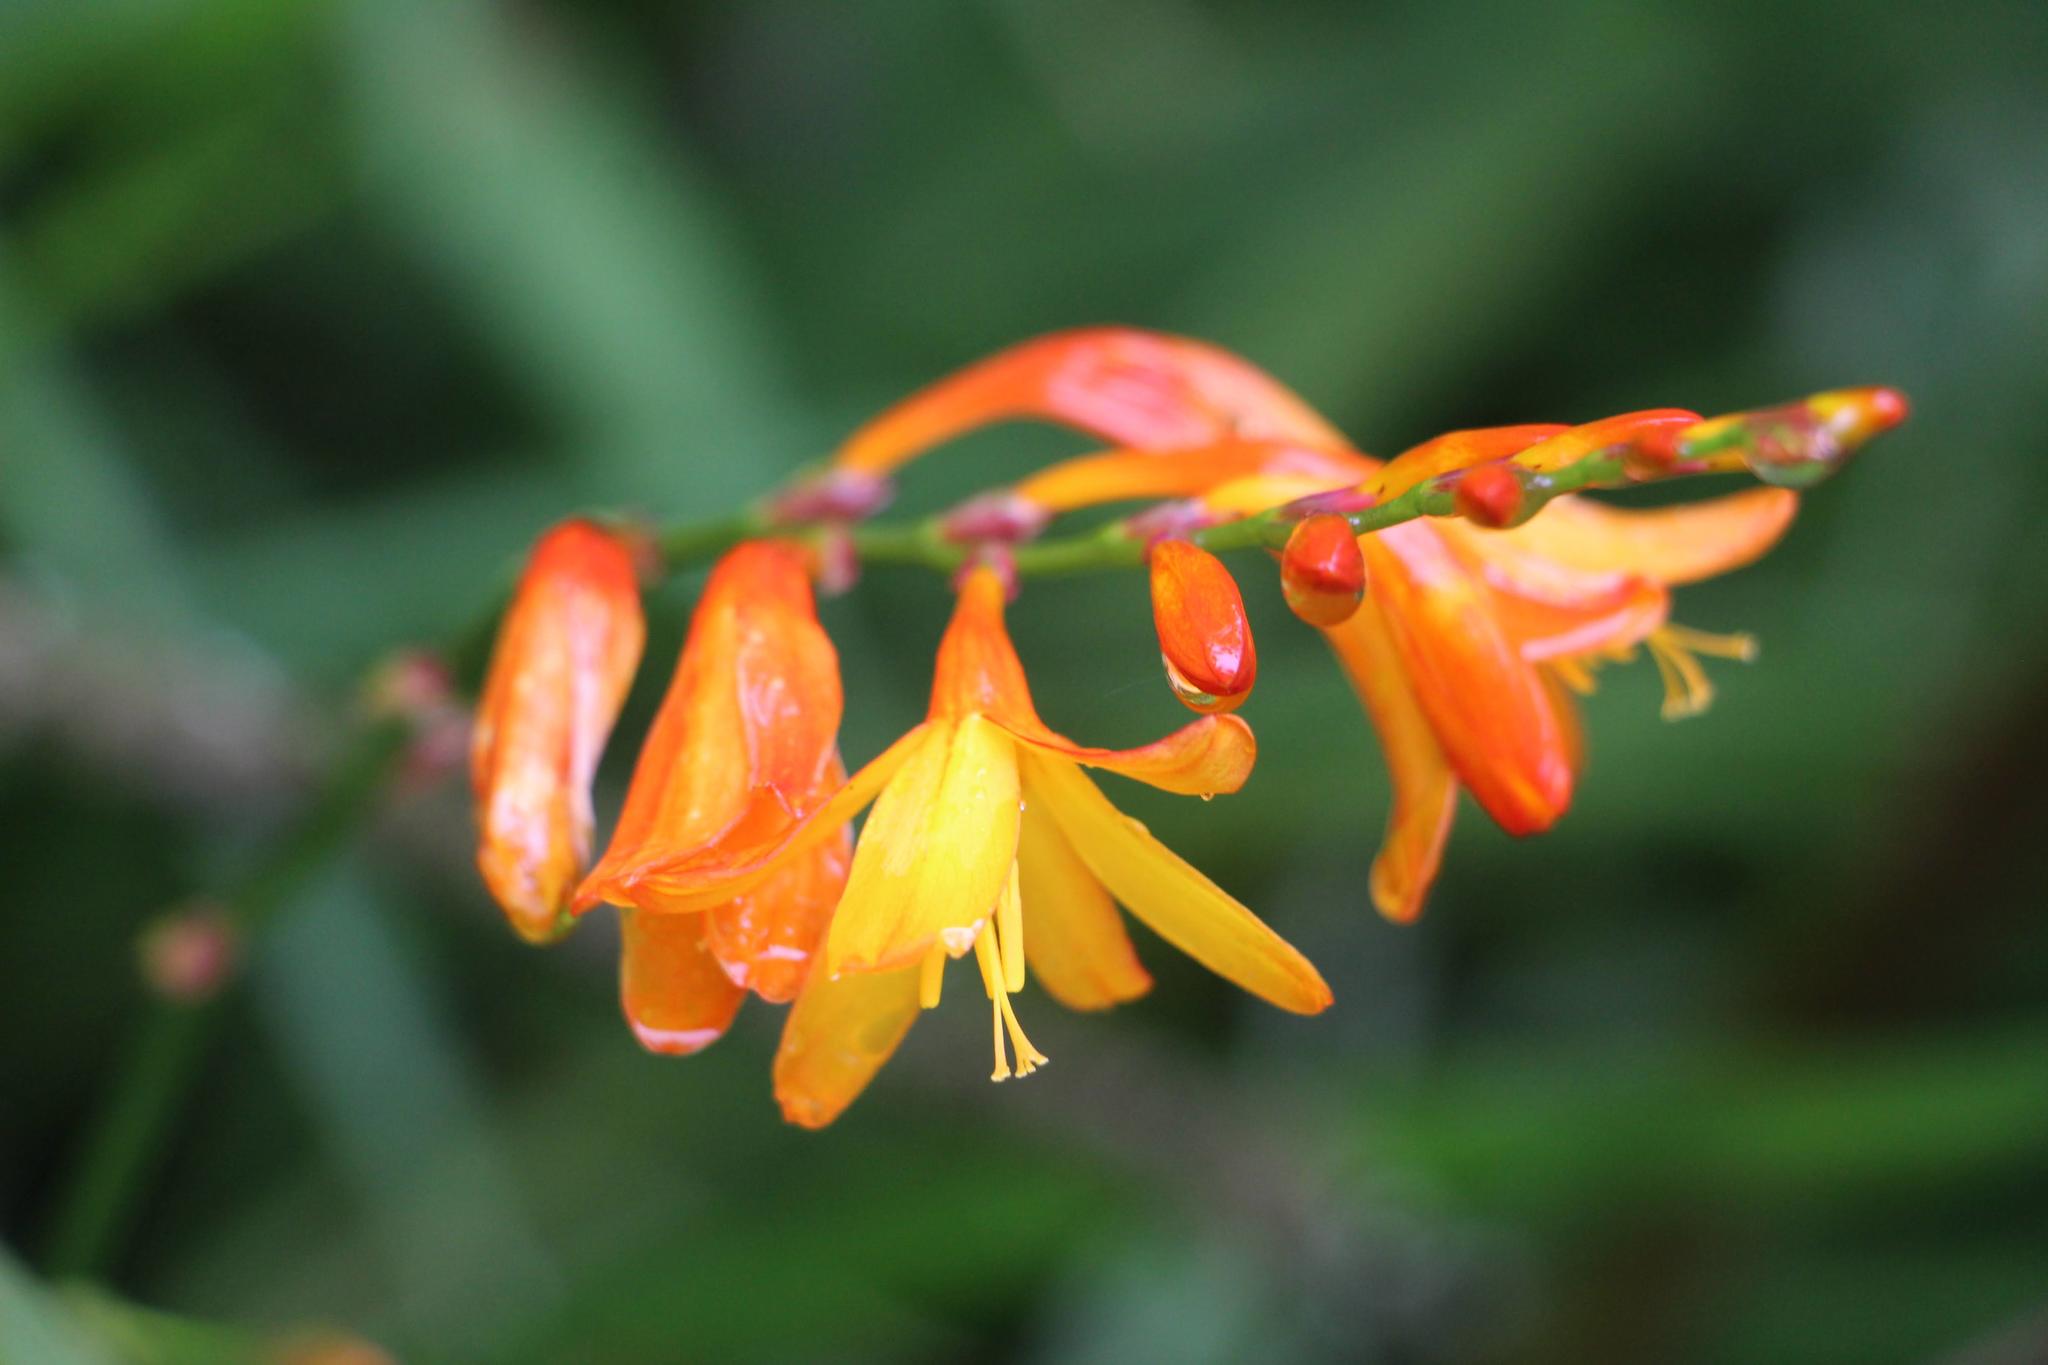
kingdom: Plantae
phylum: Tracheophyta
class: Liliopsida
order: Asparagales
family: Iridaceae
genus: Crocosmia
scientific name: Crocosmia crocosmiiflora
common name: Montbretia
